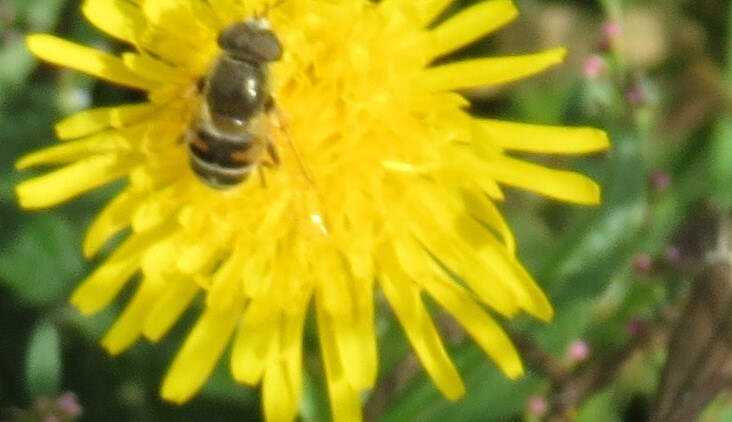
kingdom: Animalia
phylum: Arthropoda
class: Insecta
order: Diptera
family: Syrphidae
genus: Eristalis
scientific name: Eristalis stipator
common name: Yellow-shouldered drone fly
